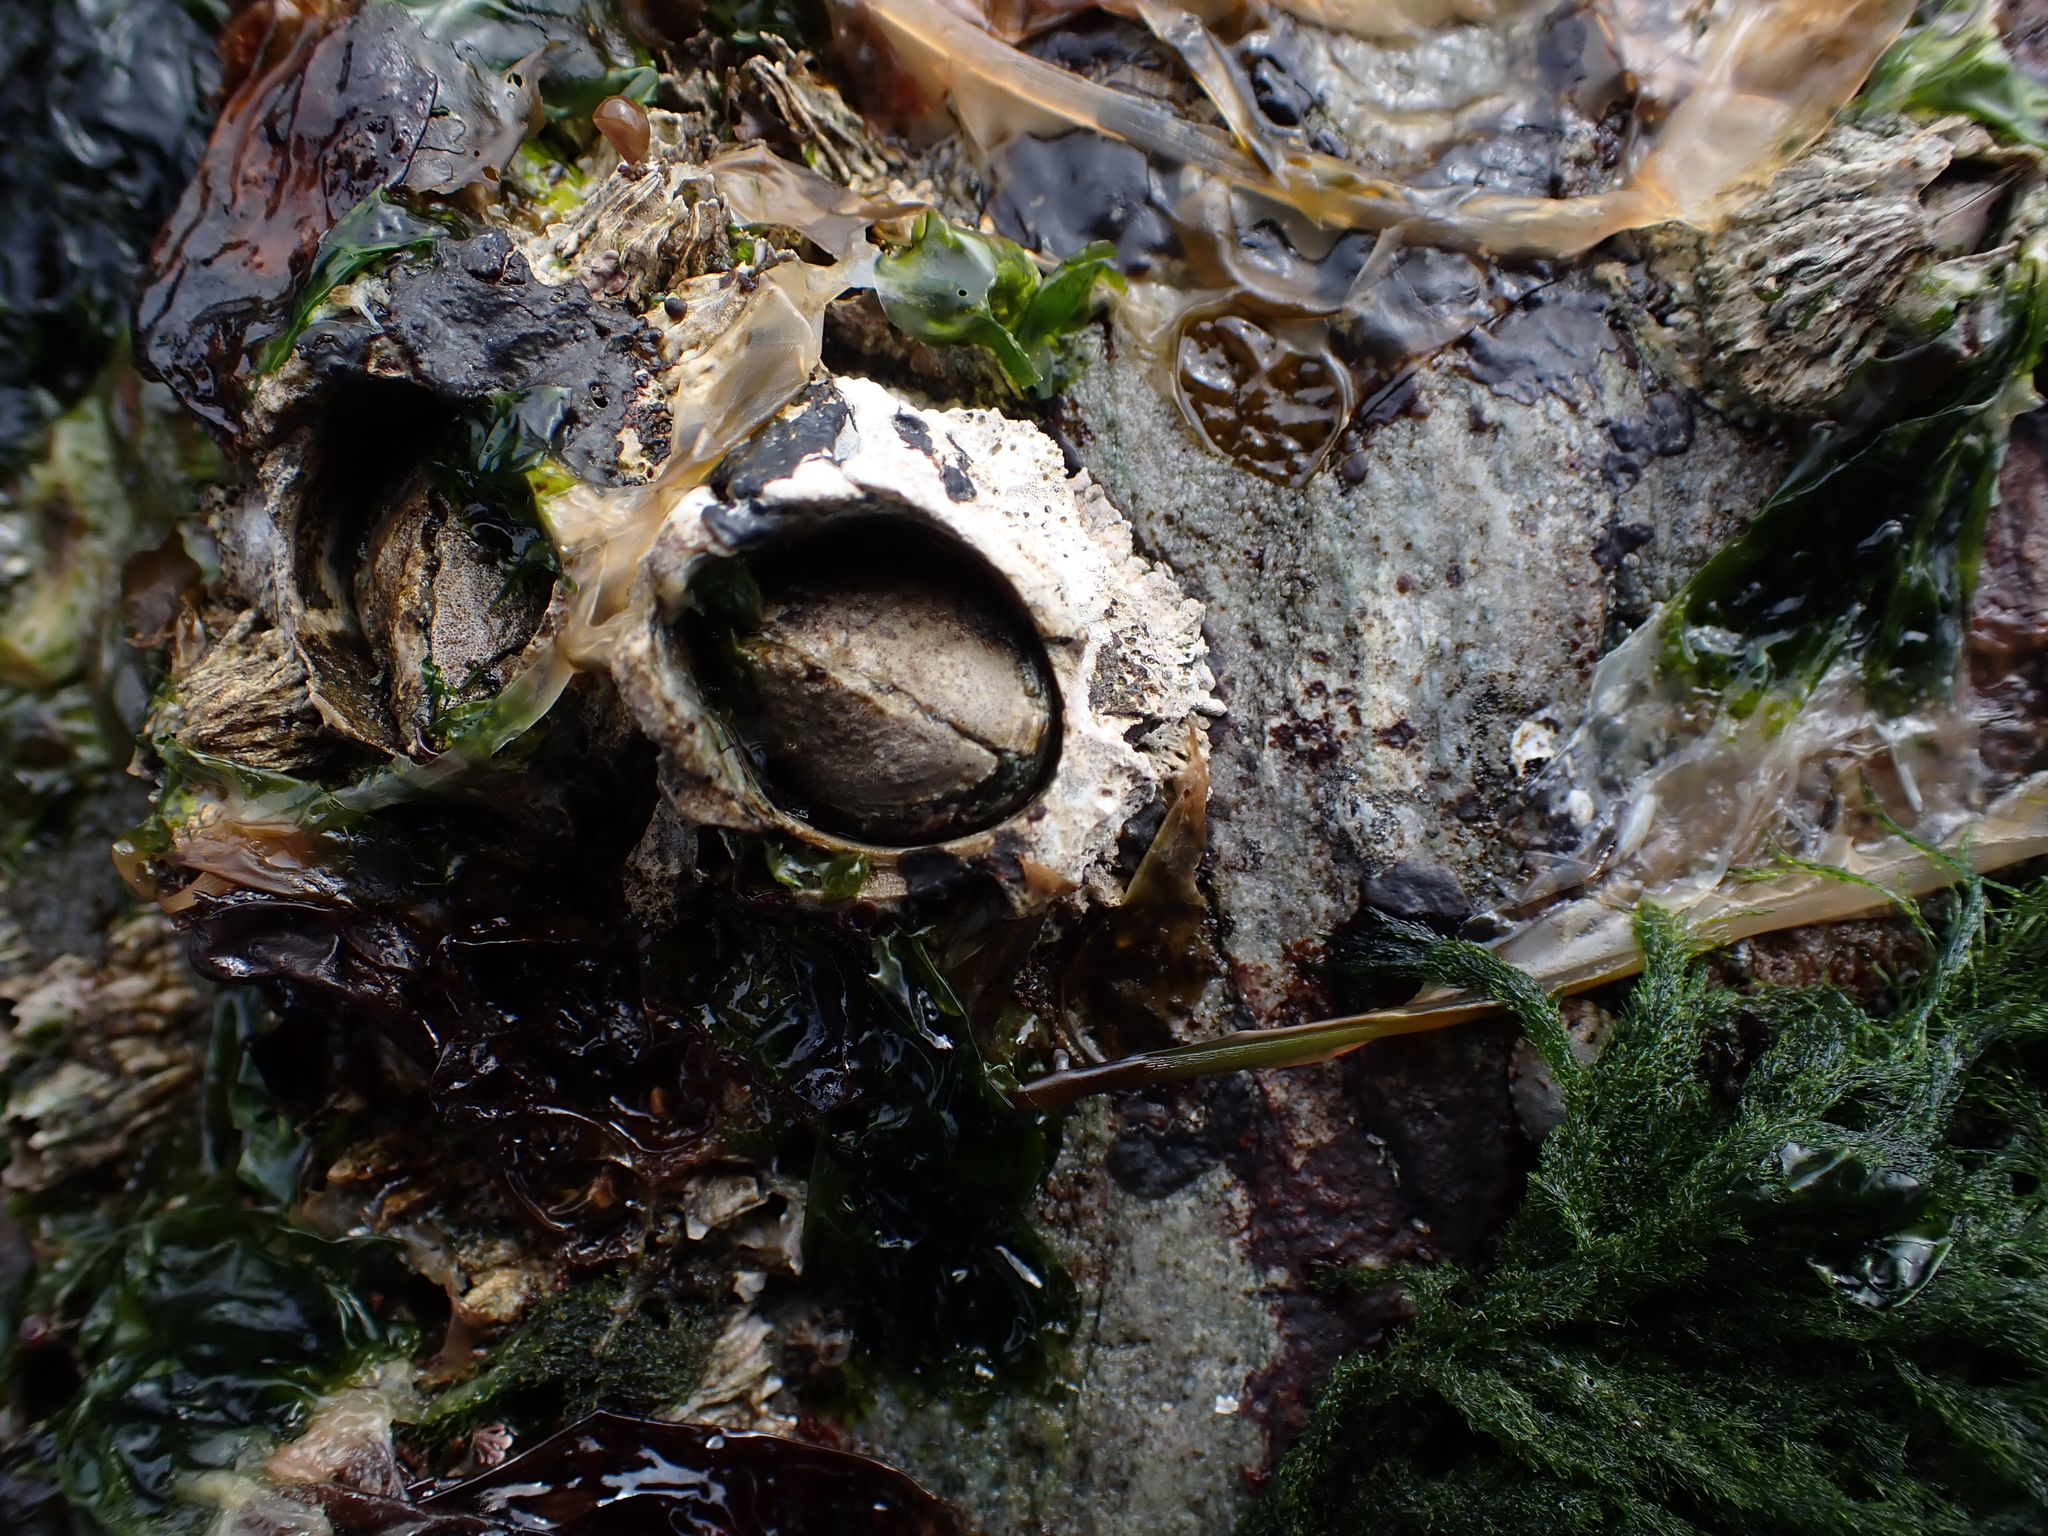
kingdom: Animalia
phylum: Arthropoda
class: Maxillopoda
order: Sessilia
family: Archaeobalanidae
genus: Semibalanus
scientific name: Semibalanus cariosus
